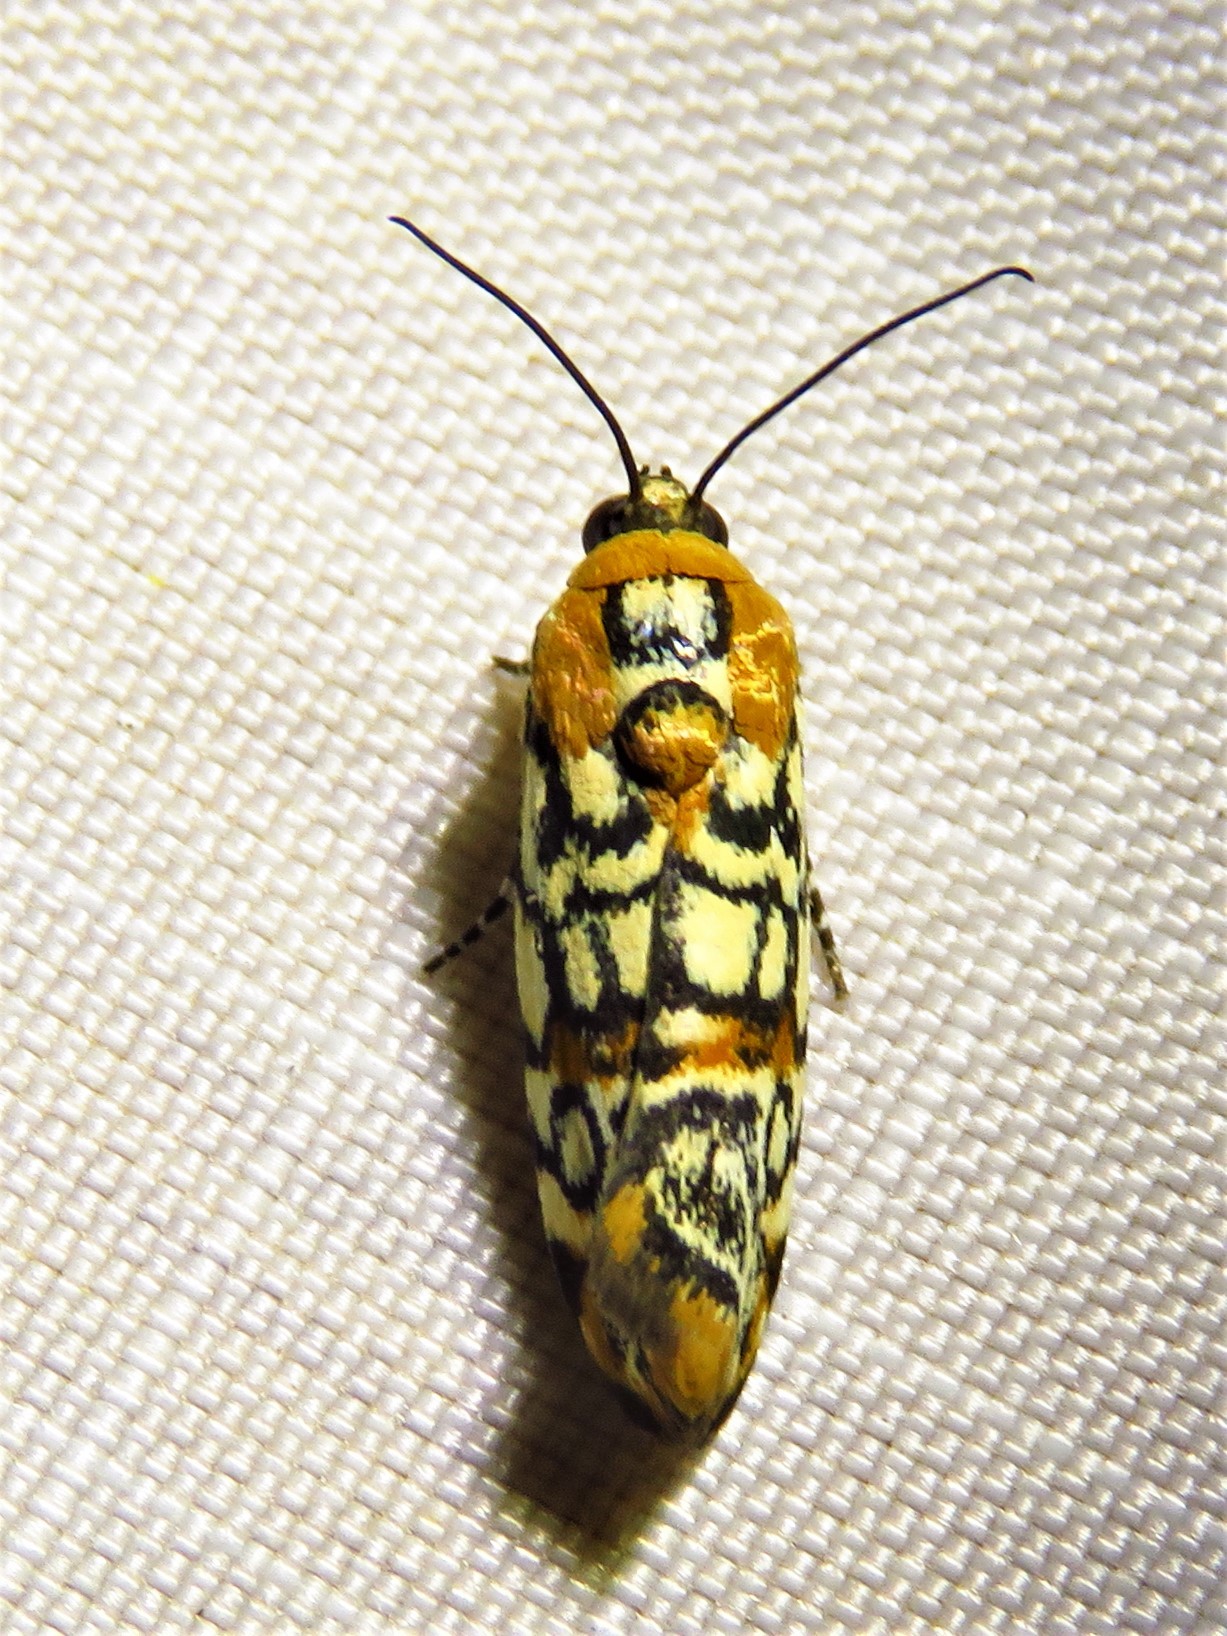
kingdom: Animalia
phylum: Arthropoda
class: Insecta
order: Lepidoptera
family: Noctuidae
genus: Spragueia
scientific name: Spragueia guttata
